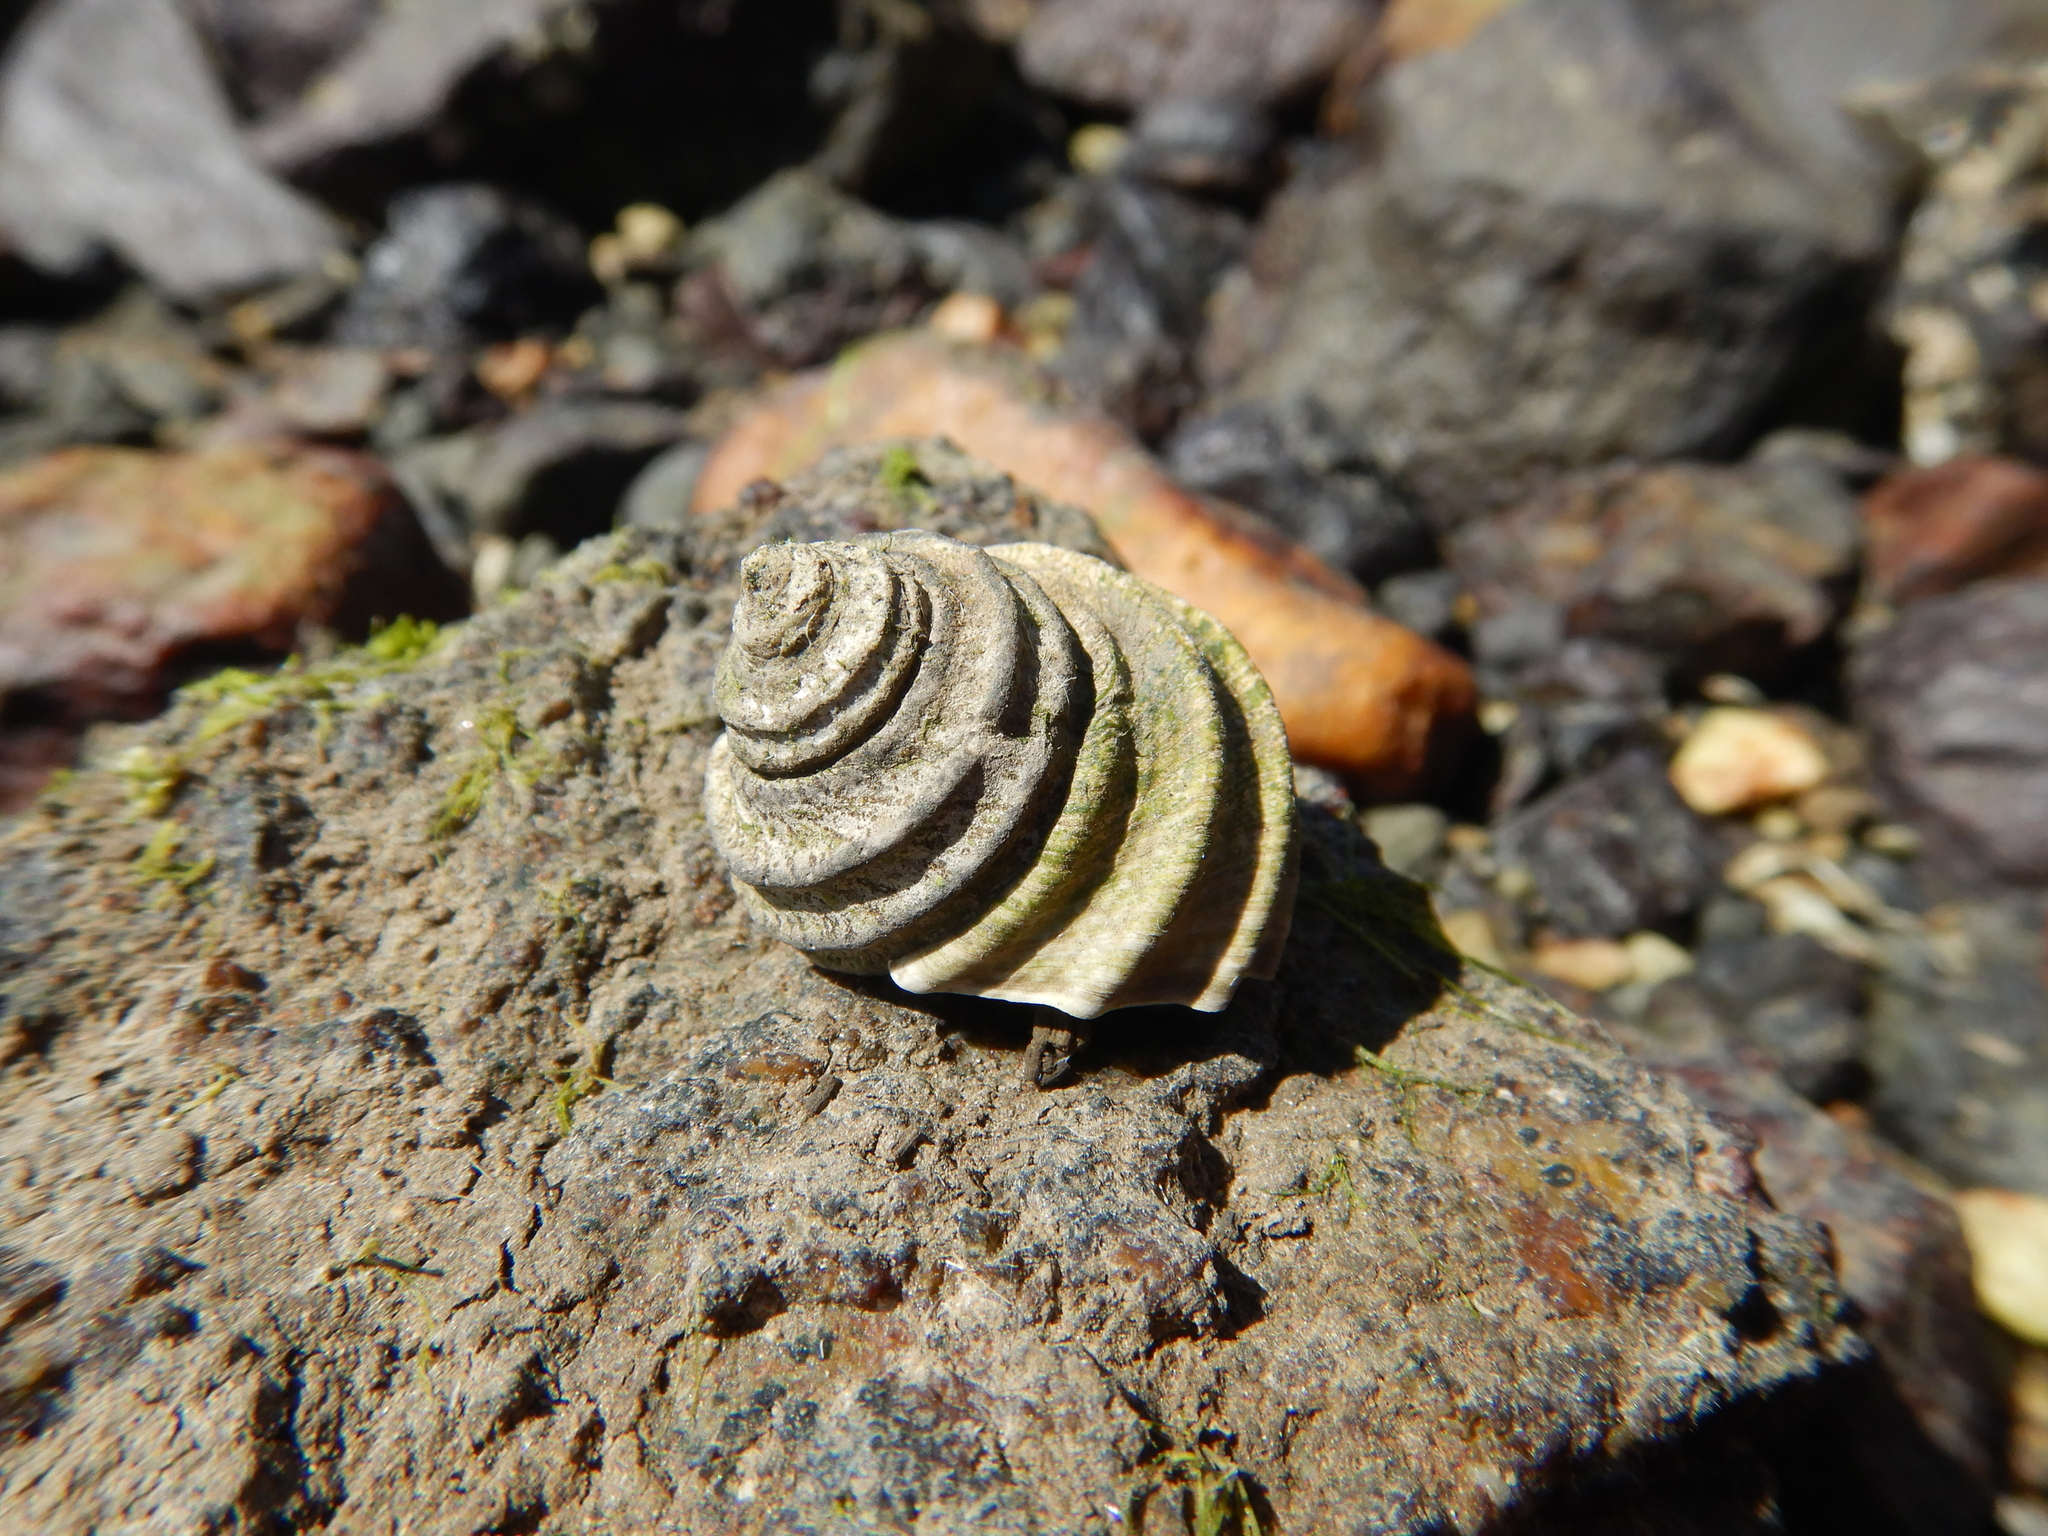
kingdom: Animalia
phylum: Mollusca
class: Gastropoda
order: Trochida
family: Trochidae
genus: Austrocochlea
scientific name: Austrocochlea constricta
